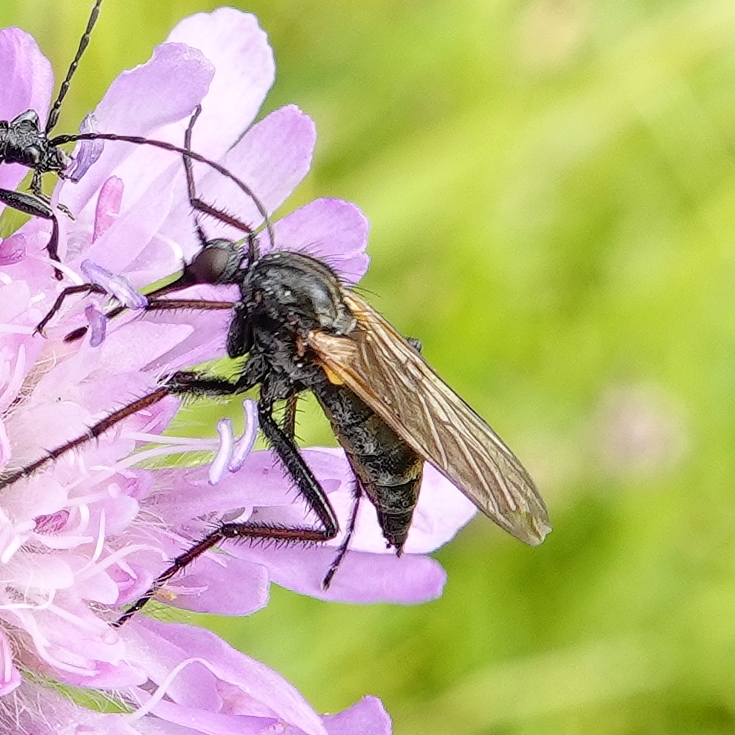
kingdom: Animalia
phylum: Arthropoda
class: Insecta
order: Diptera
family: Empididae
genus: Empis
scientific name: Empis tessellata
